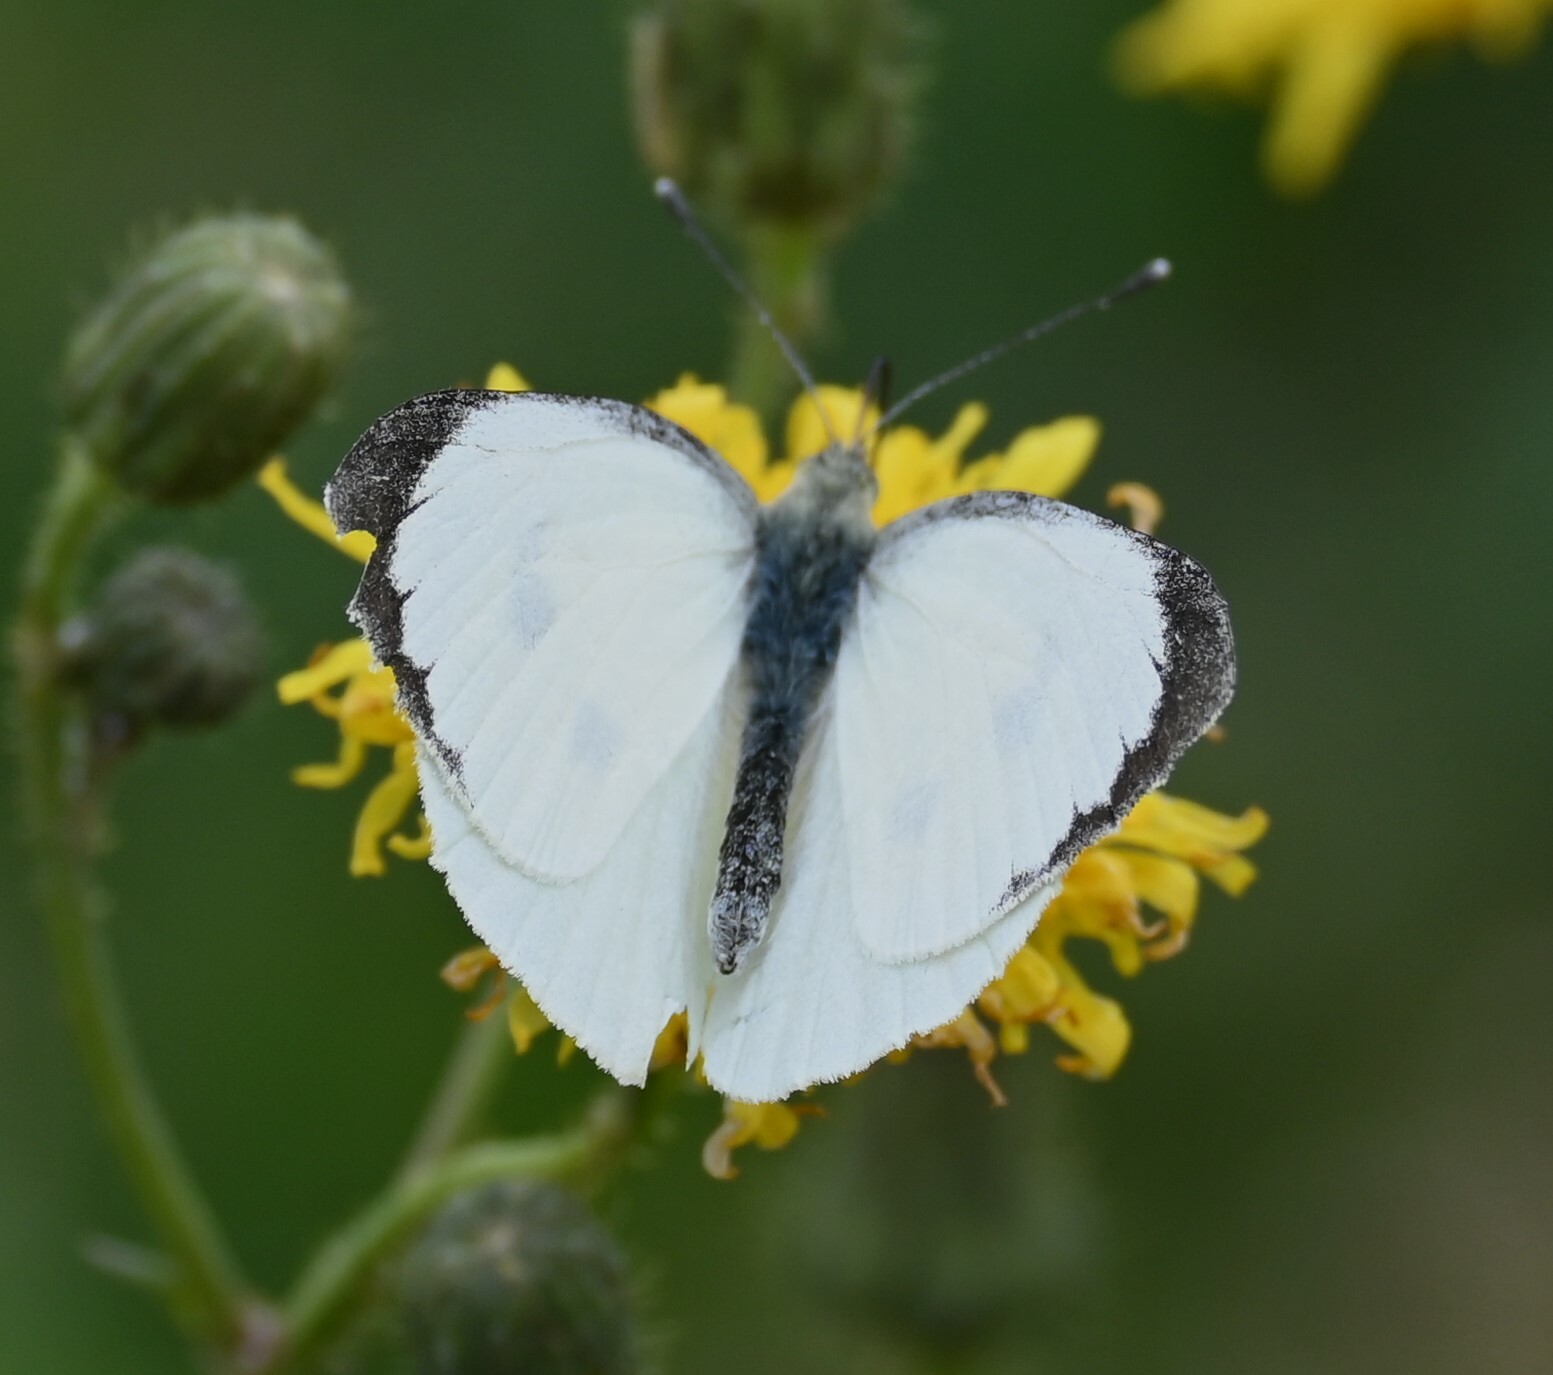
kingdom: Animalia
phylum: Arthropoda
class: Insecta
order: Lepidoptera
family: Pieridae
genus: Pieris
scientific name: Pieris brassicae
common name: Large white
